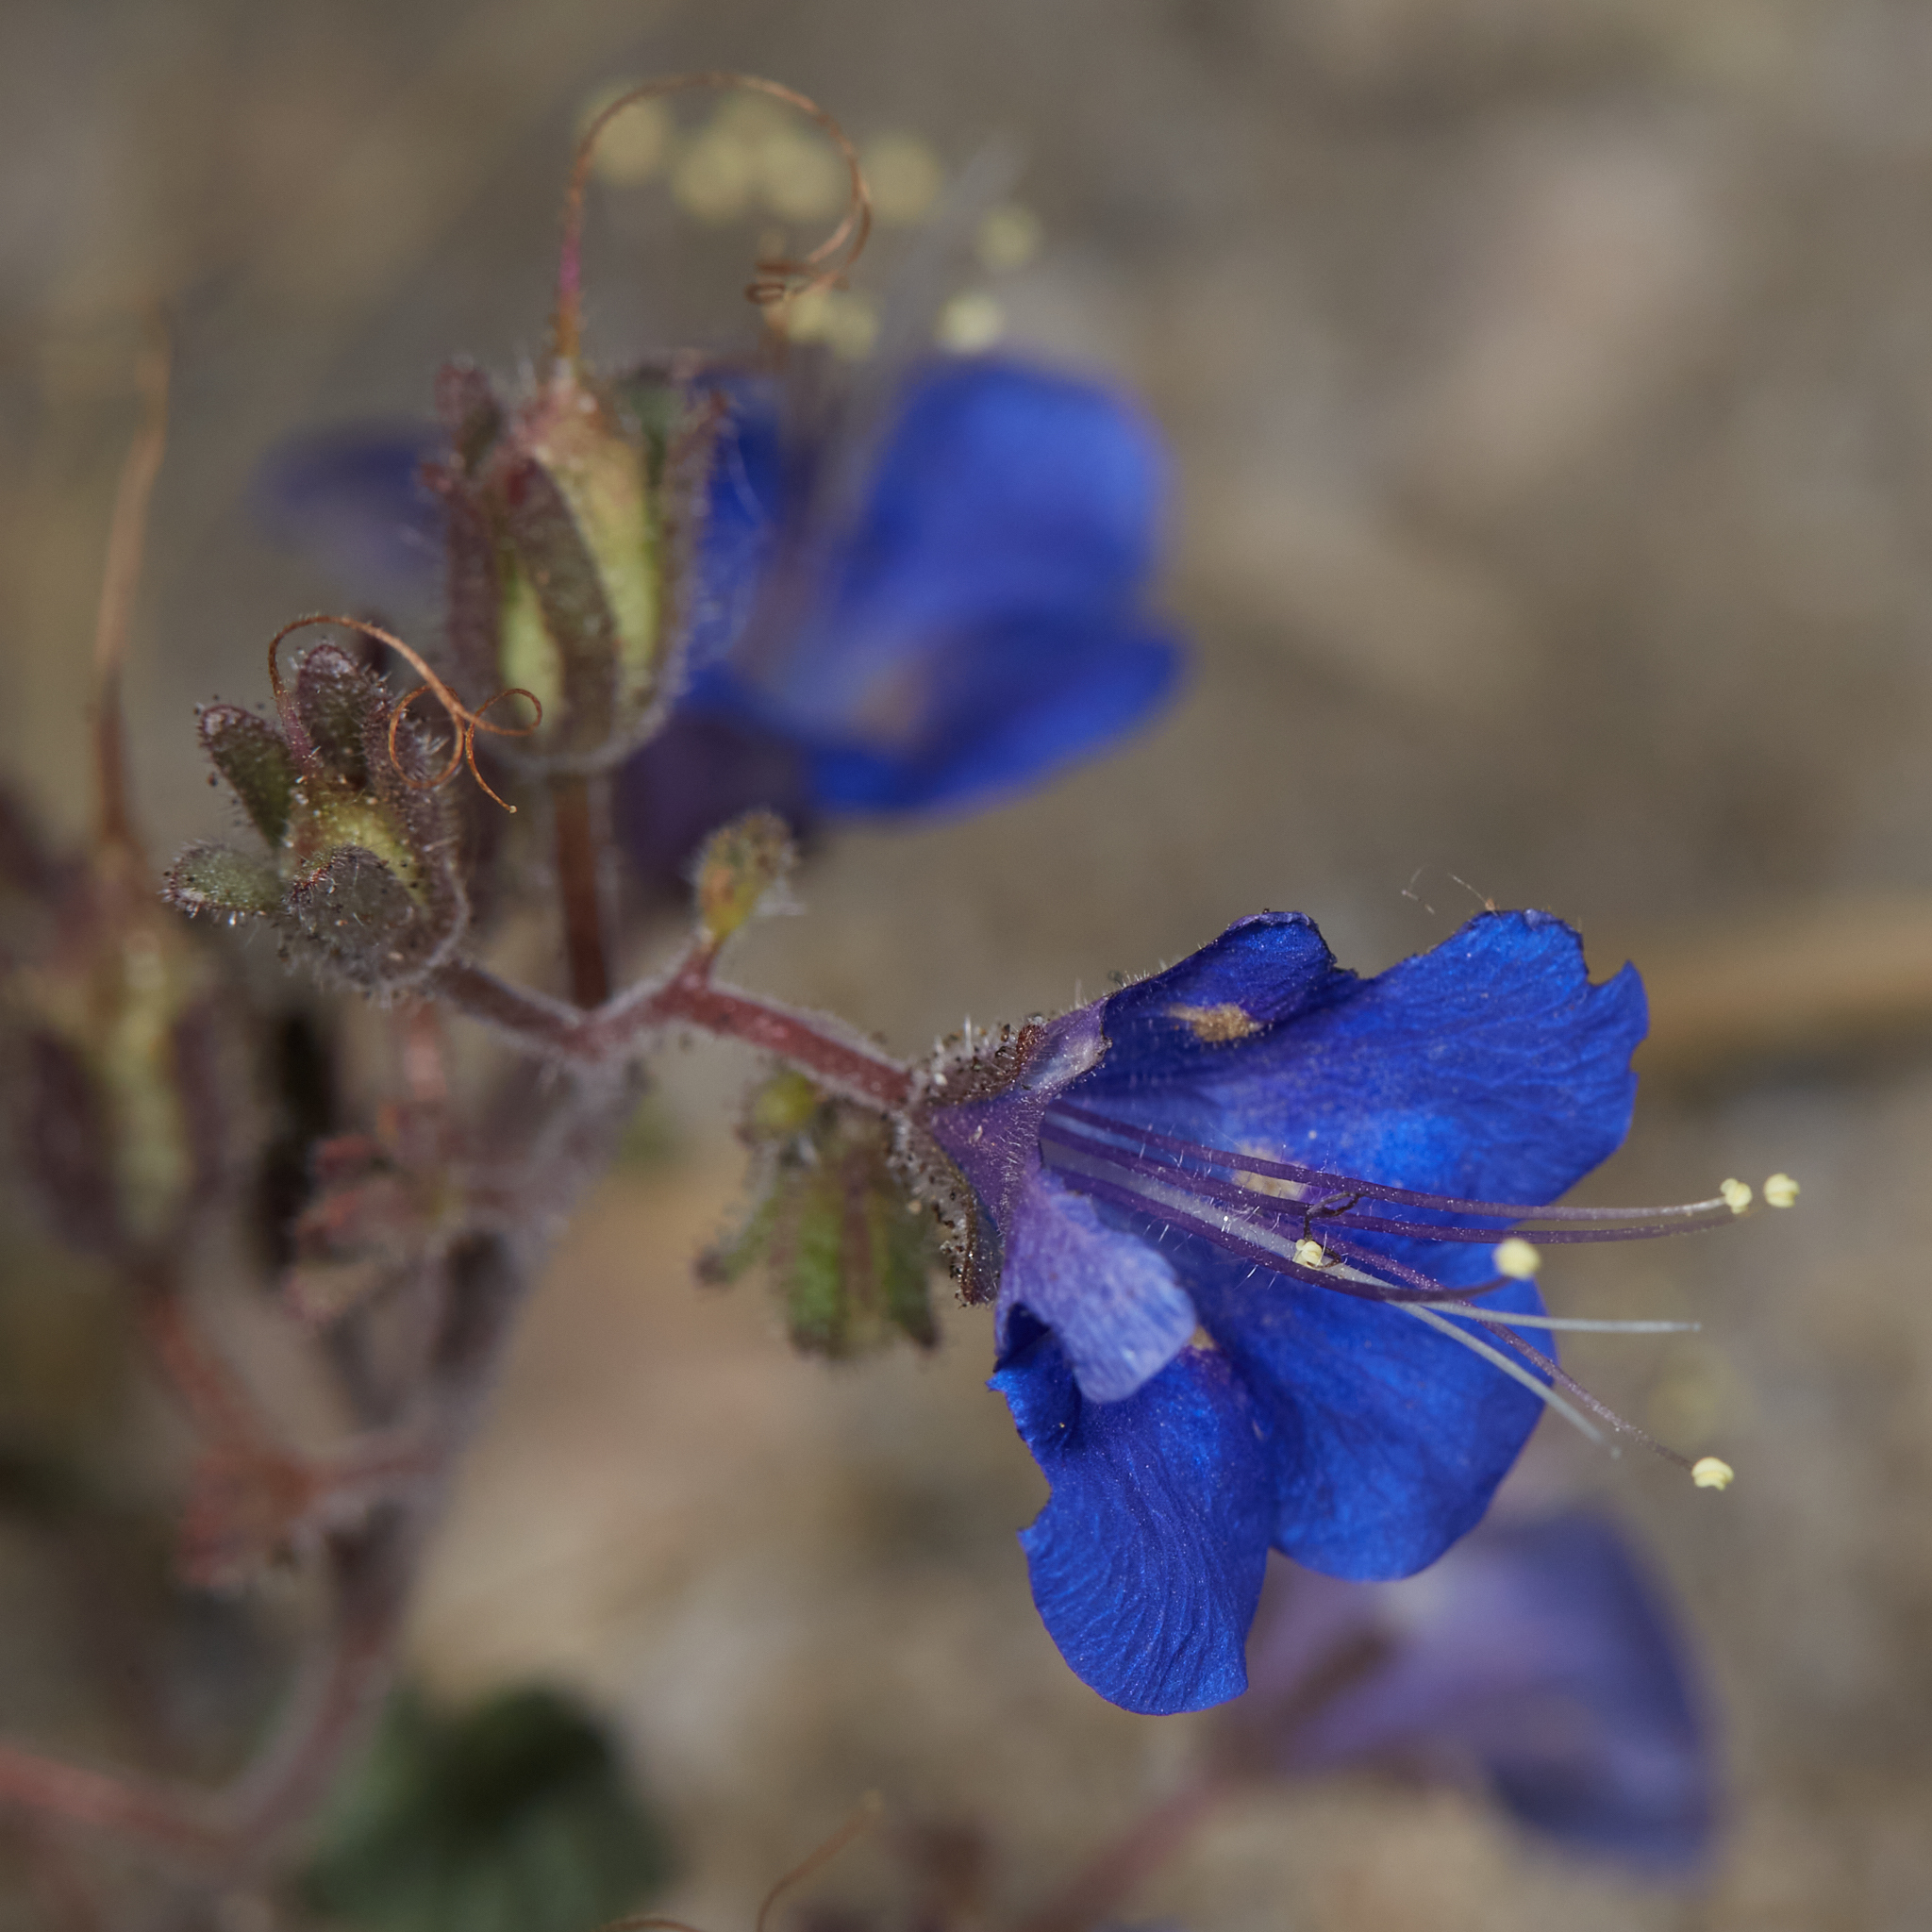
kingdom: Plantae
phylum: Tracheophyta
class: Magnoliopsida
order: Boraginales
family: Hydrophyllaceae
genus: Phacelia
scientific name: Phacelia campanularia
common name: California bluebell
